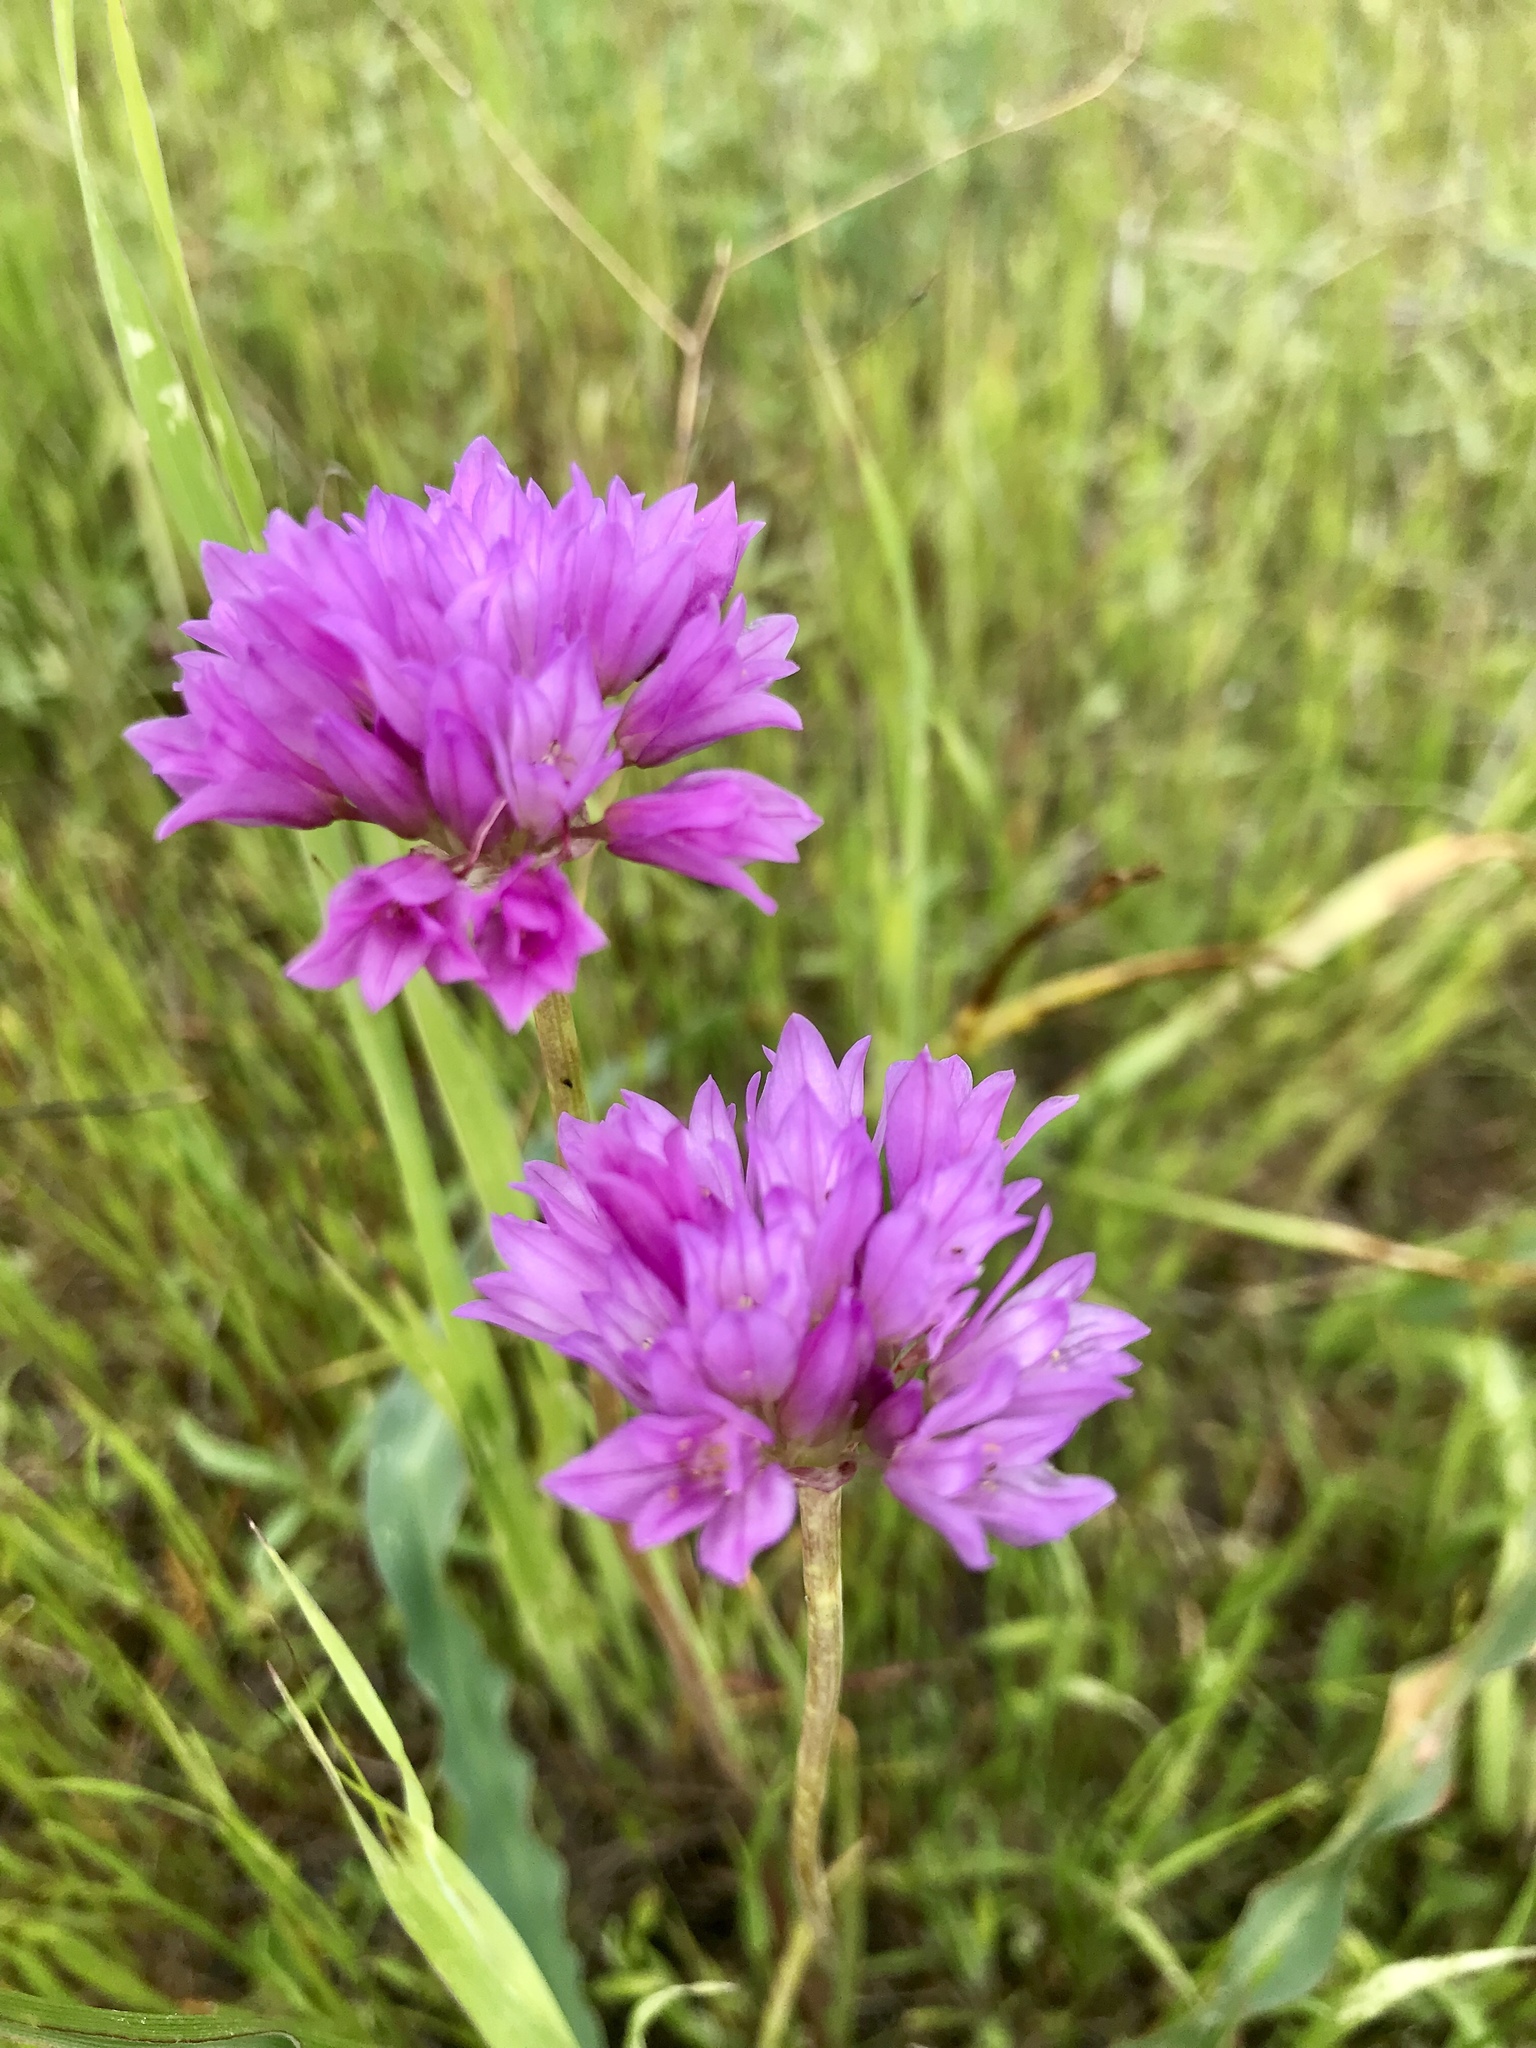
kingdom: Plantae
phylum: Tracheophyta
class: Liliopsida
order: Asparagales
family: Amaryllidaceae
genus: Allium
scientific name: Allium serra
